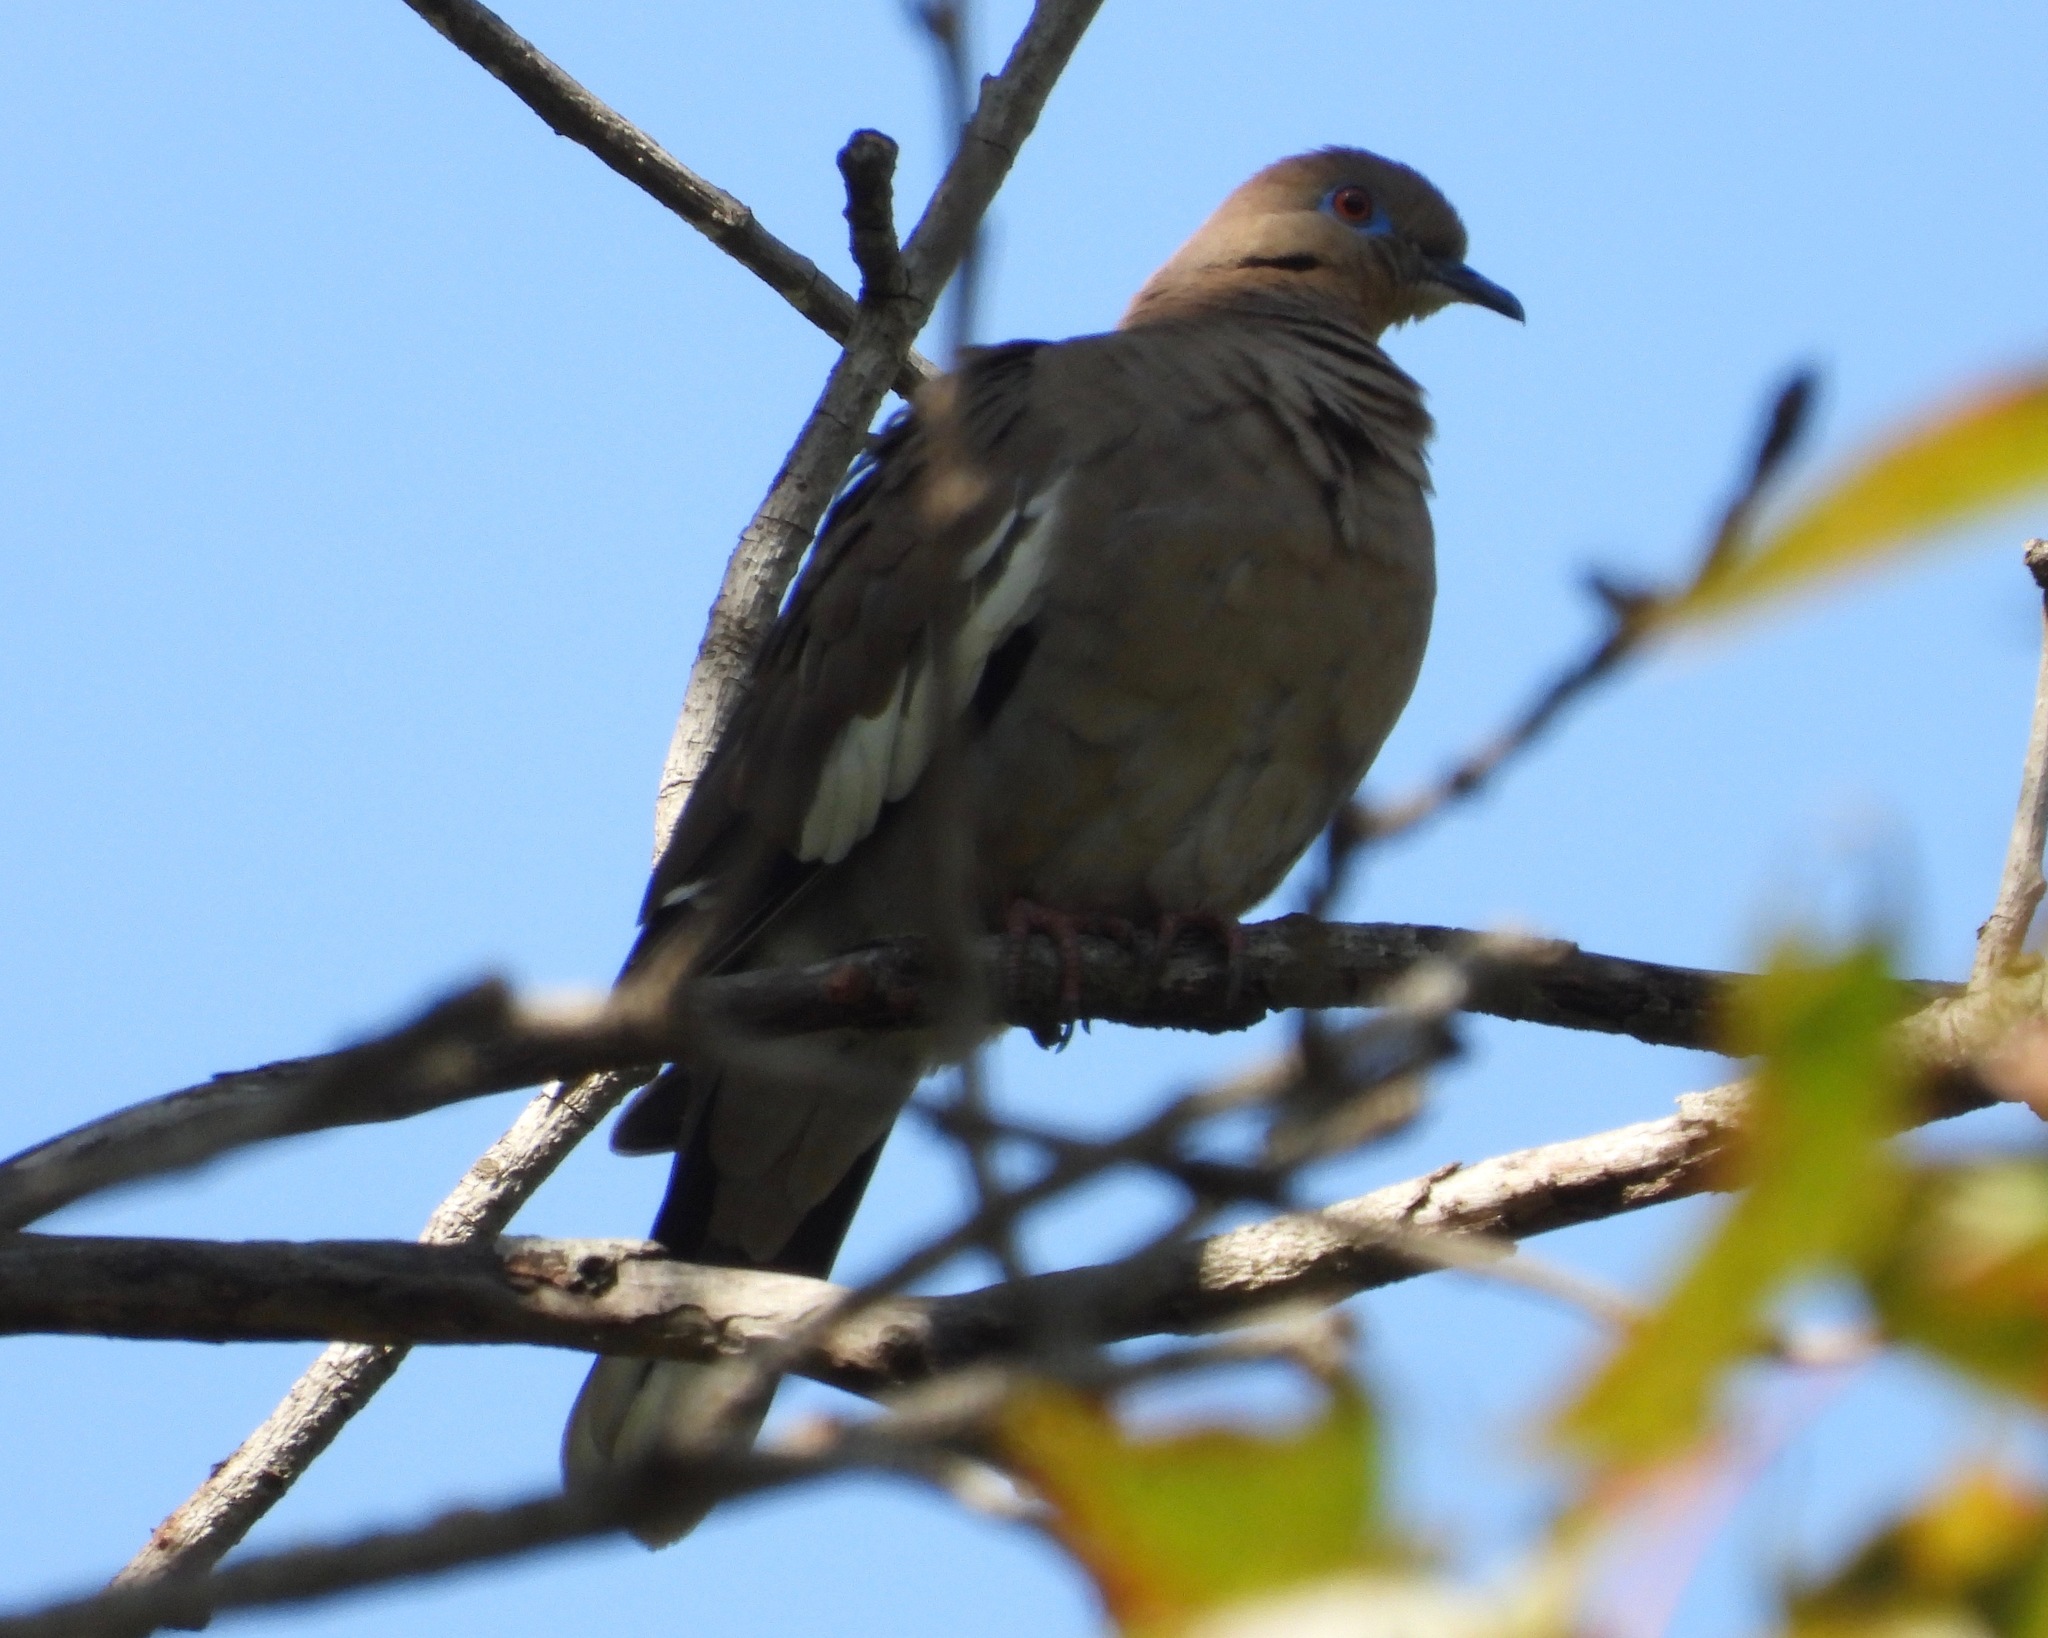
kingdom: Animalia
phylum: Chordata
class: Aves
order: Columbiformes
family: Columbidae
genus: Zenaida
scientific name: Zenaida asiatica
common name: White-winged dove
